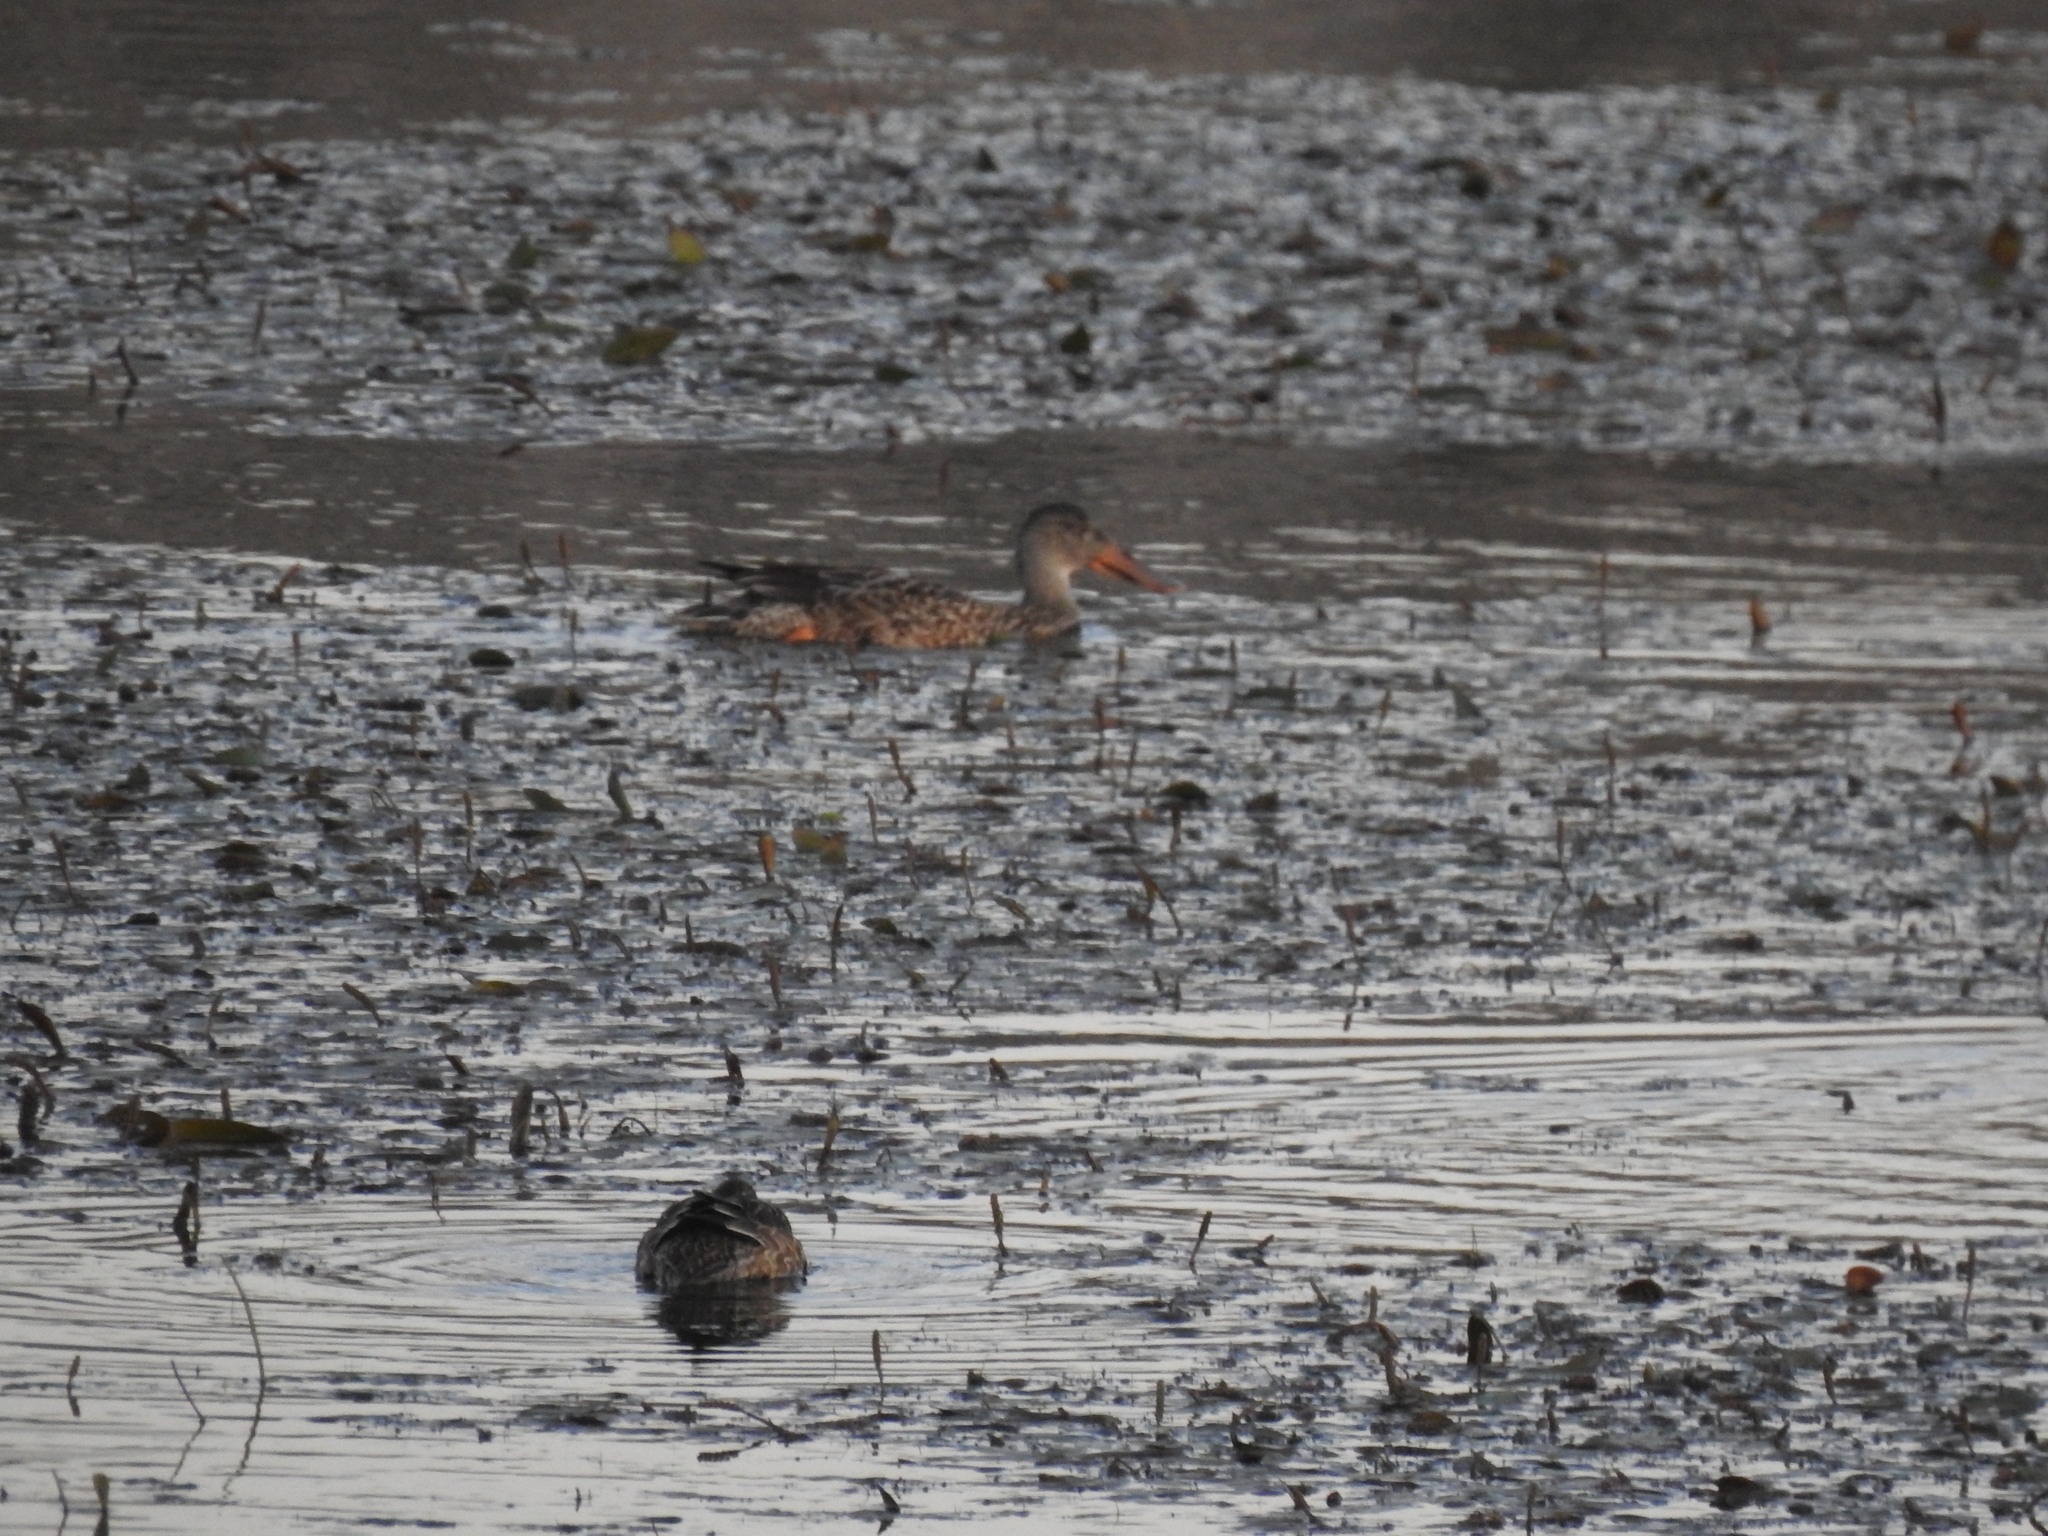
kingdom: Animalia
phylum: Chordata
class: Aves
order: Anseriformes
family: Anatidae
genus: Spatula
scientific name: Spatula clypeata
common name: Northern shoveler
